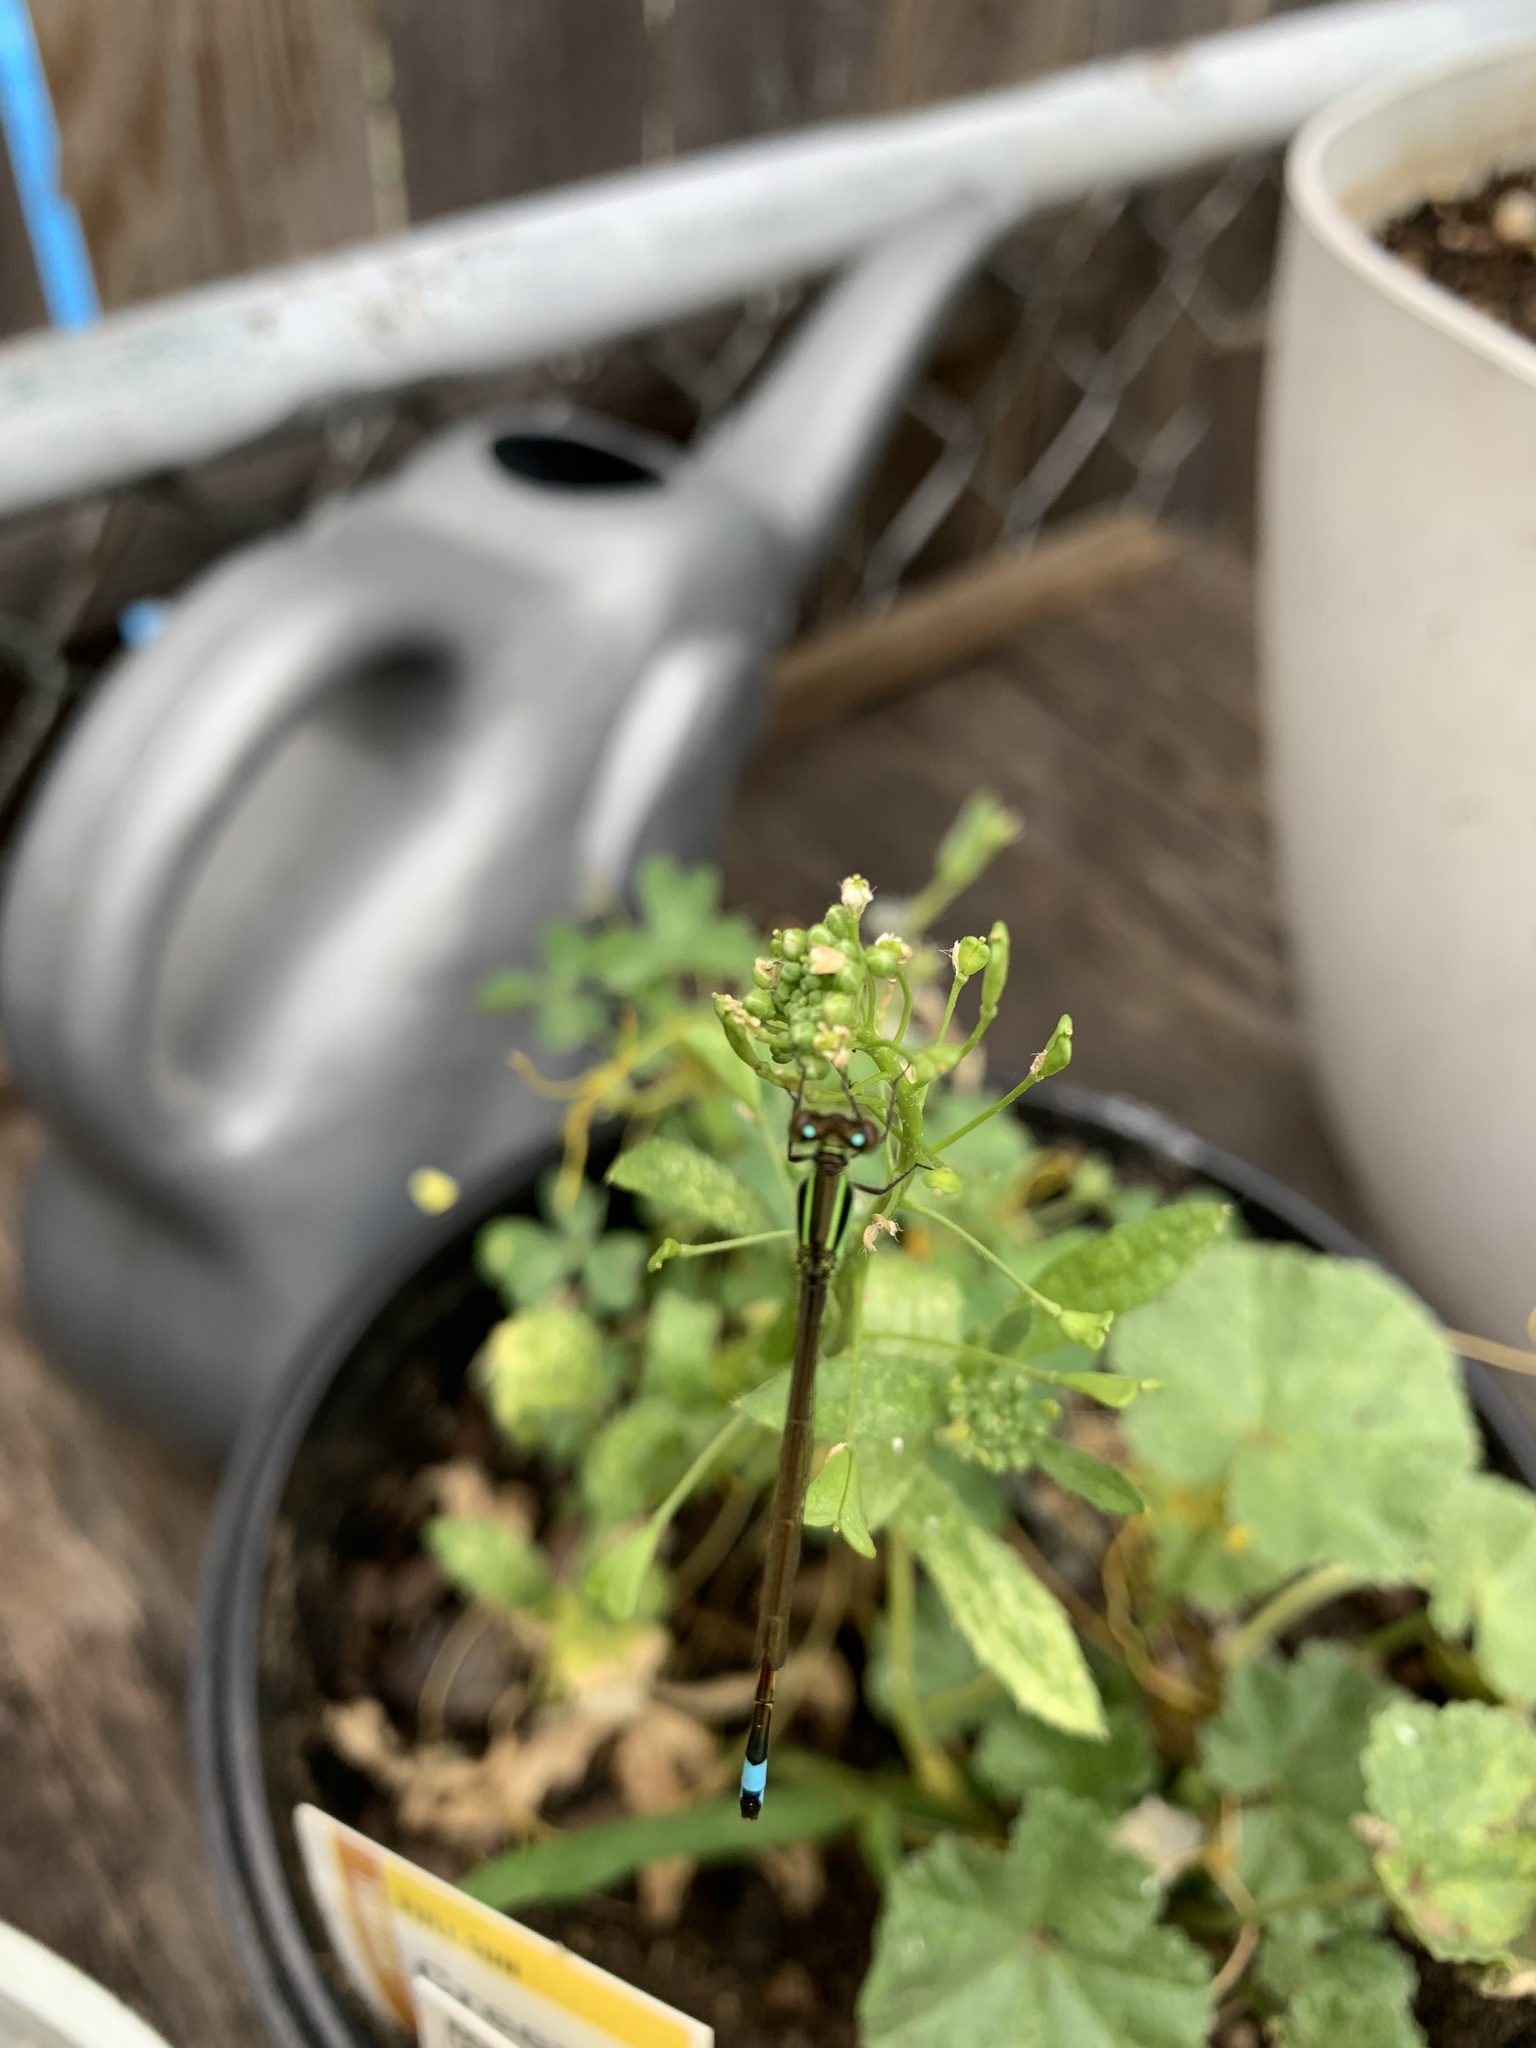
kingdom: Animalia
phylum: Arthropoda
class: Insecta
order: Odonata
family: Coenagrionidae
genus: Ischnura
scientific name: Ischnura ramburii
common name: Rambur's forktail
